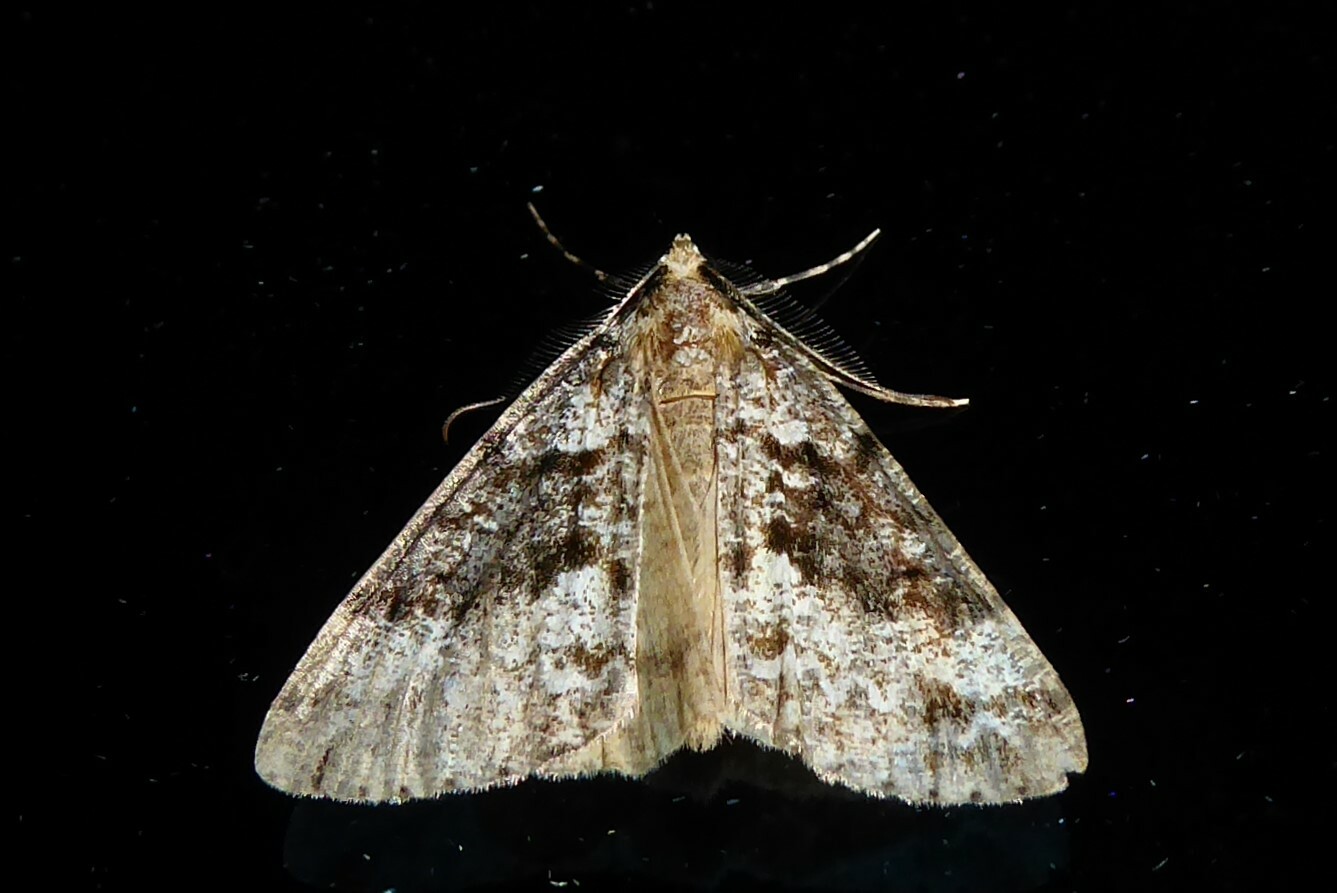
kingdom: Animalia
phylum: Arthropoda
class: Insecta
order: Lepidoptera
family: Geometridae
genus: Pseudocoremia
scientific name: Pseudocoremia leucelaea
